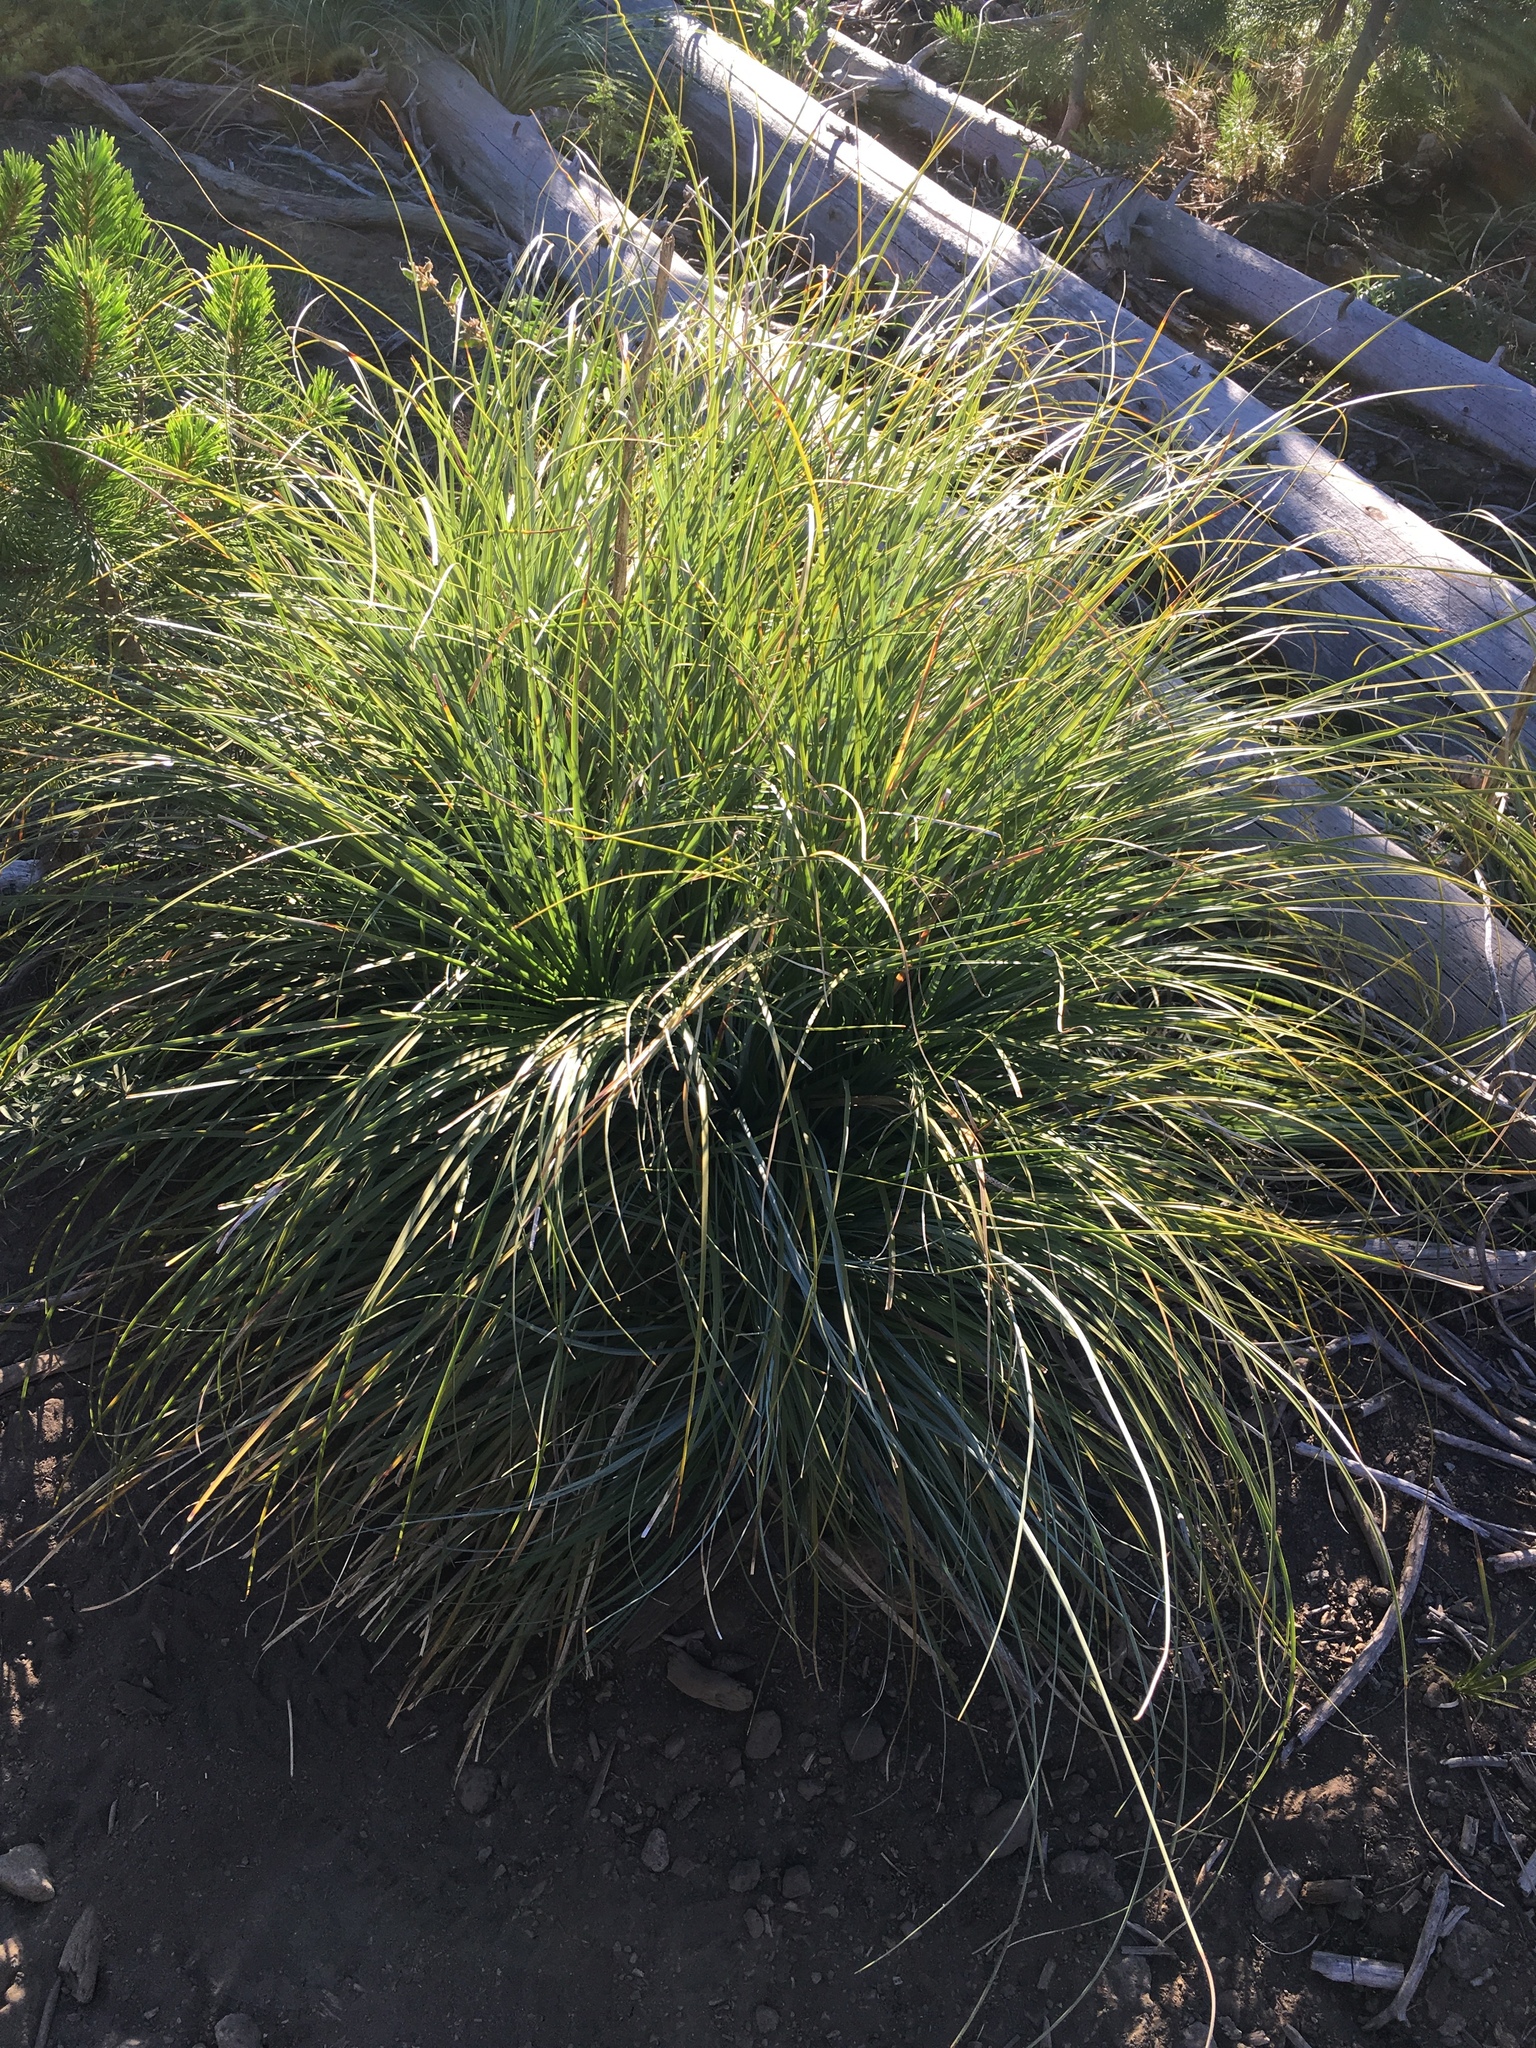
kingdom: Plantae
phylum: Tracheophyta
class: Liliopsida
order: Liliales
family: Melanthiaceae
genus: Xerophyllum
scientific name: Xerophyllum tenax
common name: Bear-grass
